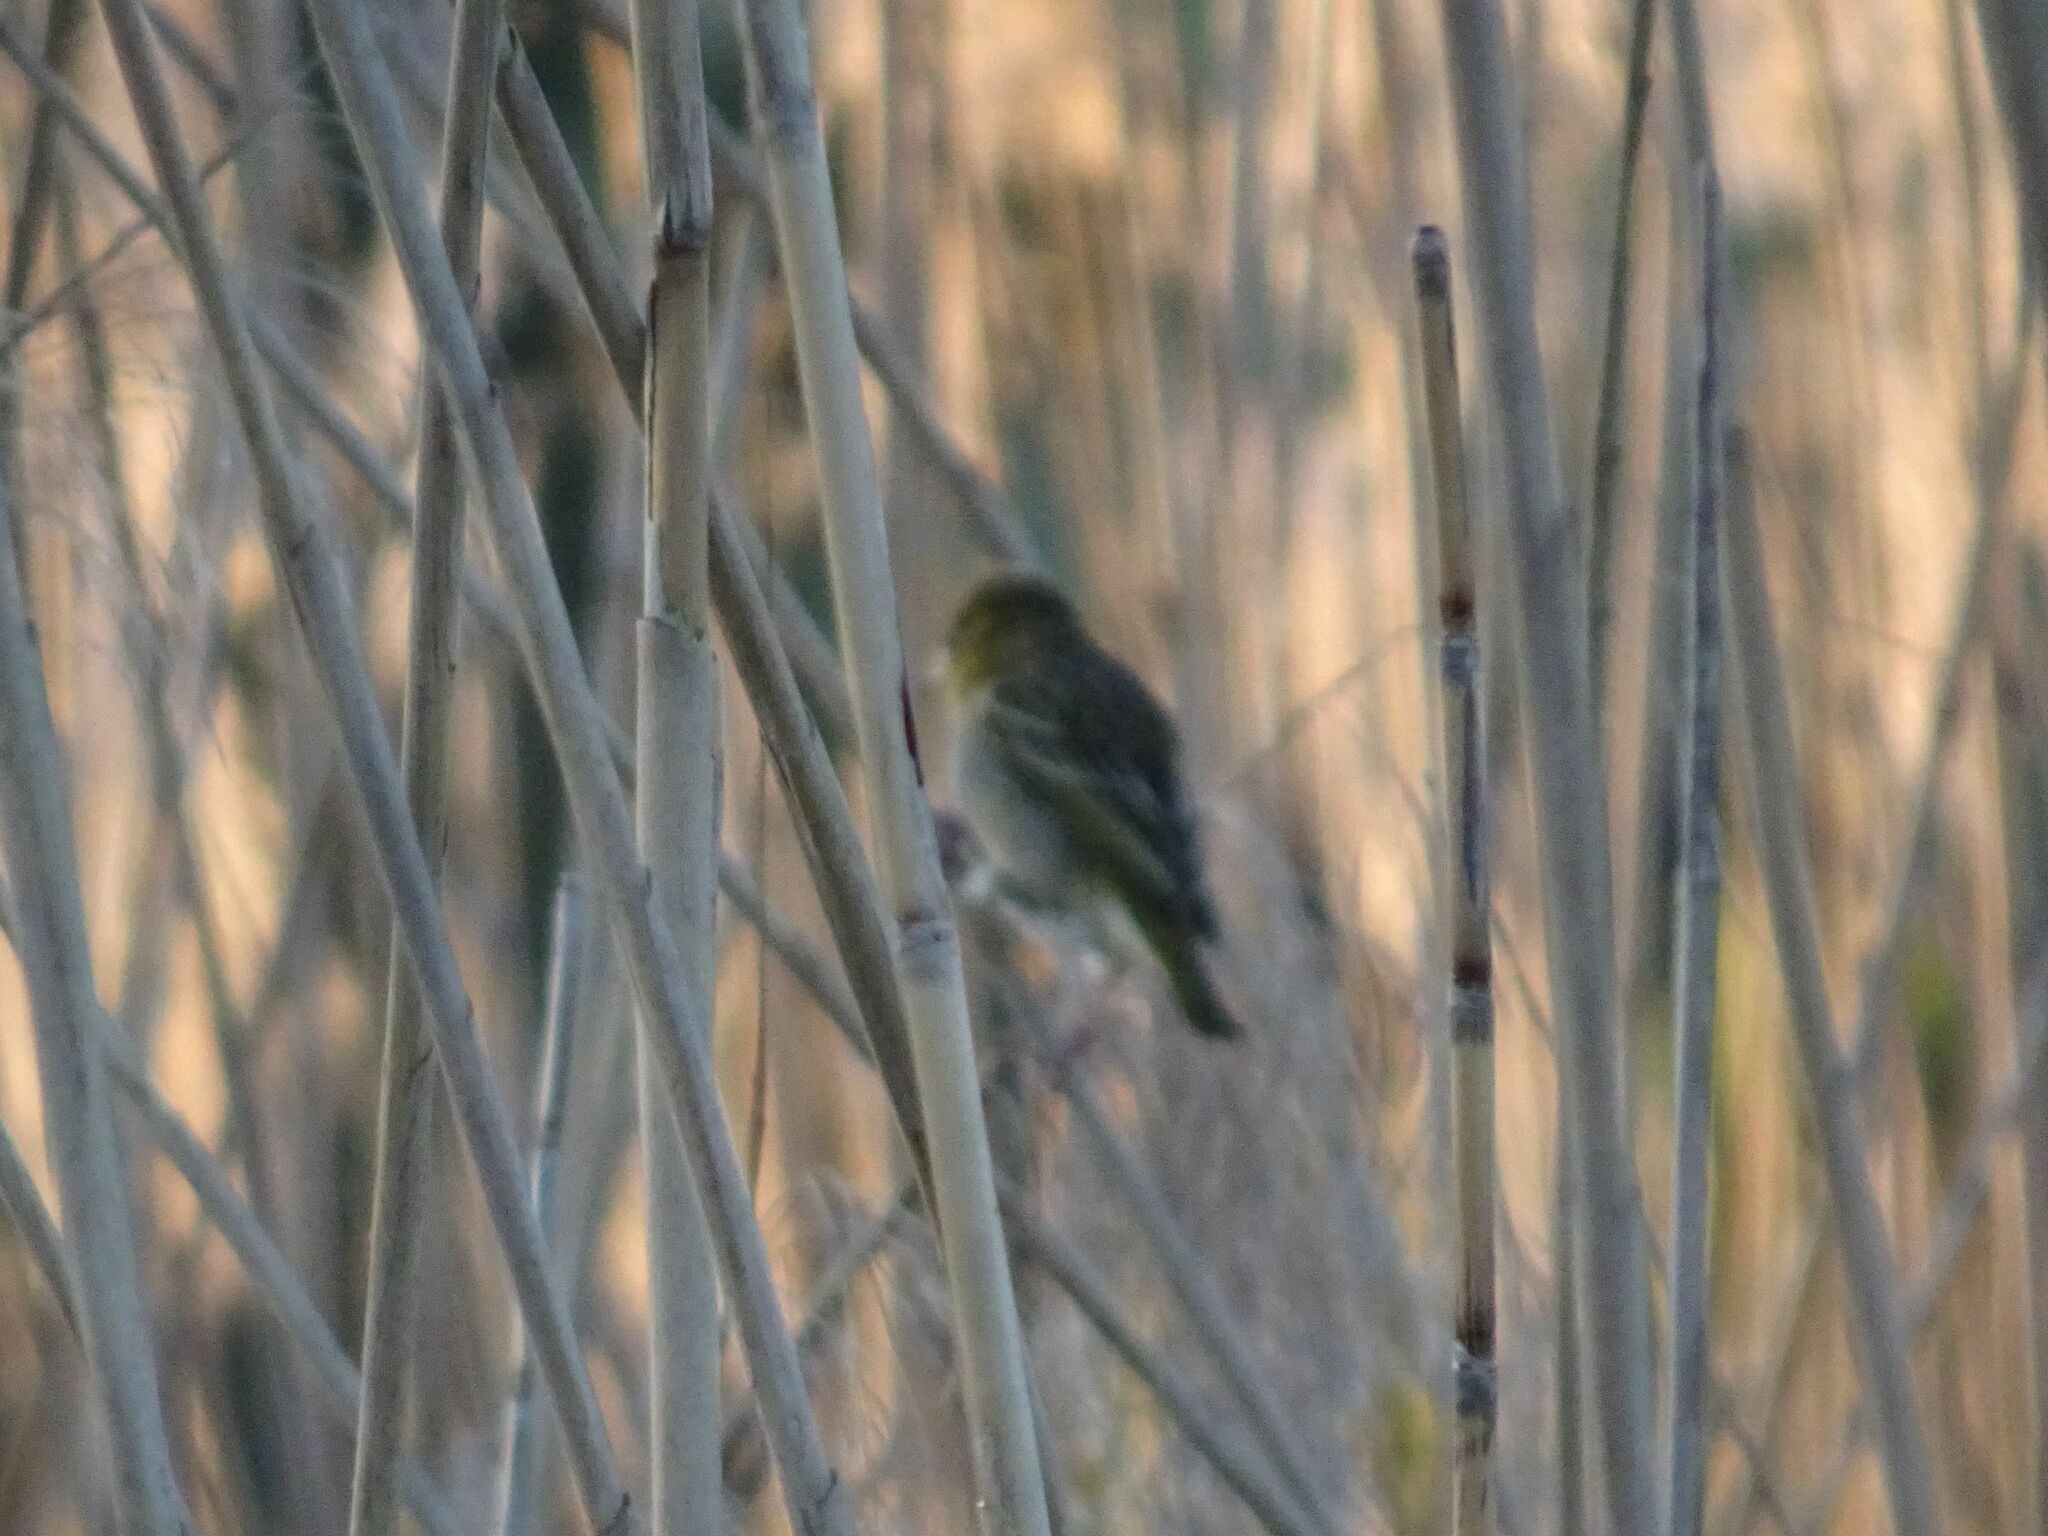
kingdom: Animalia
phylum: Chordata
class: Aves
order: Passeriformes
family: Ploceidae
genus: Ploceus
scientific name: Ploceus velatus
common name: Southern masked weaver
